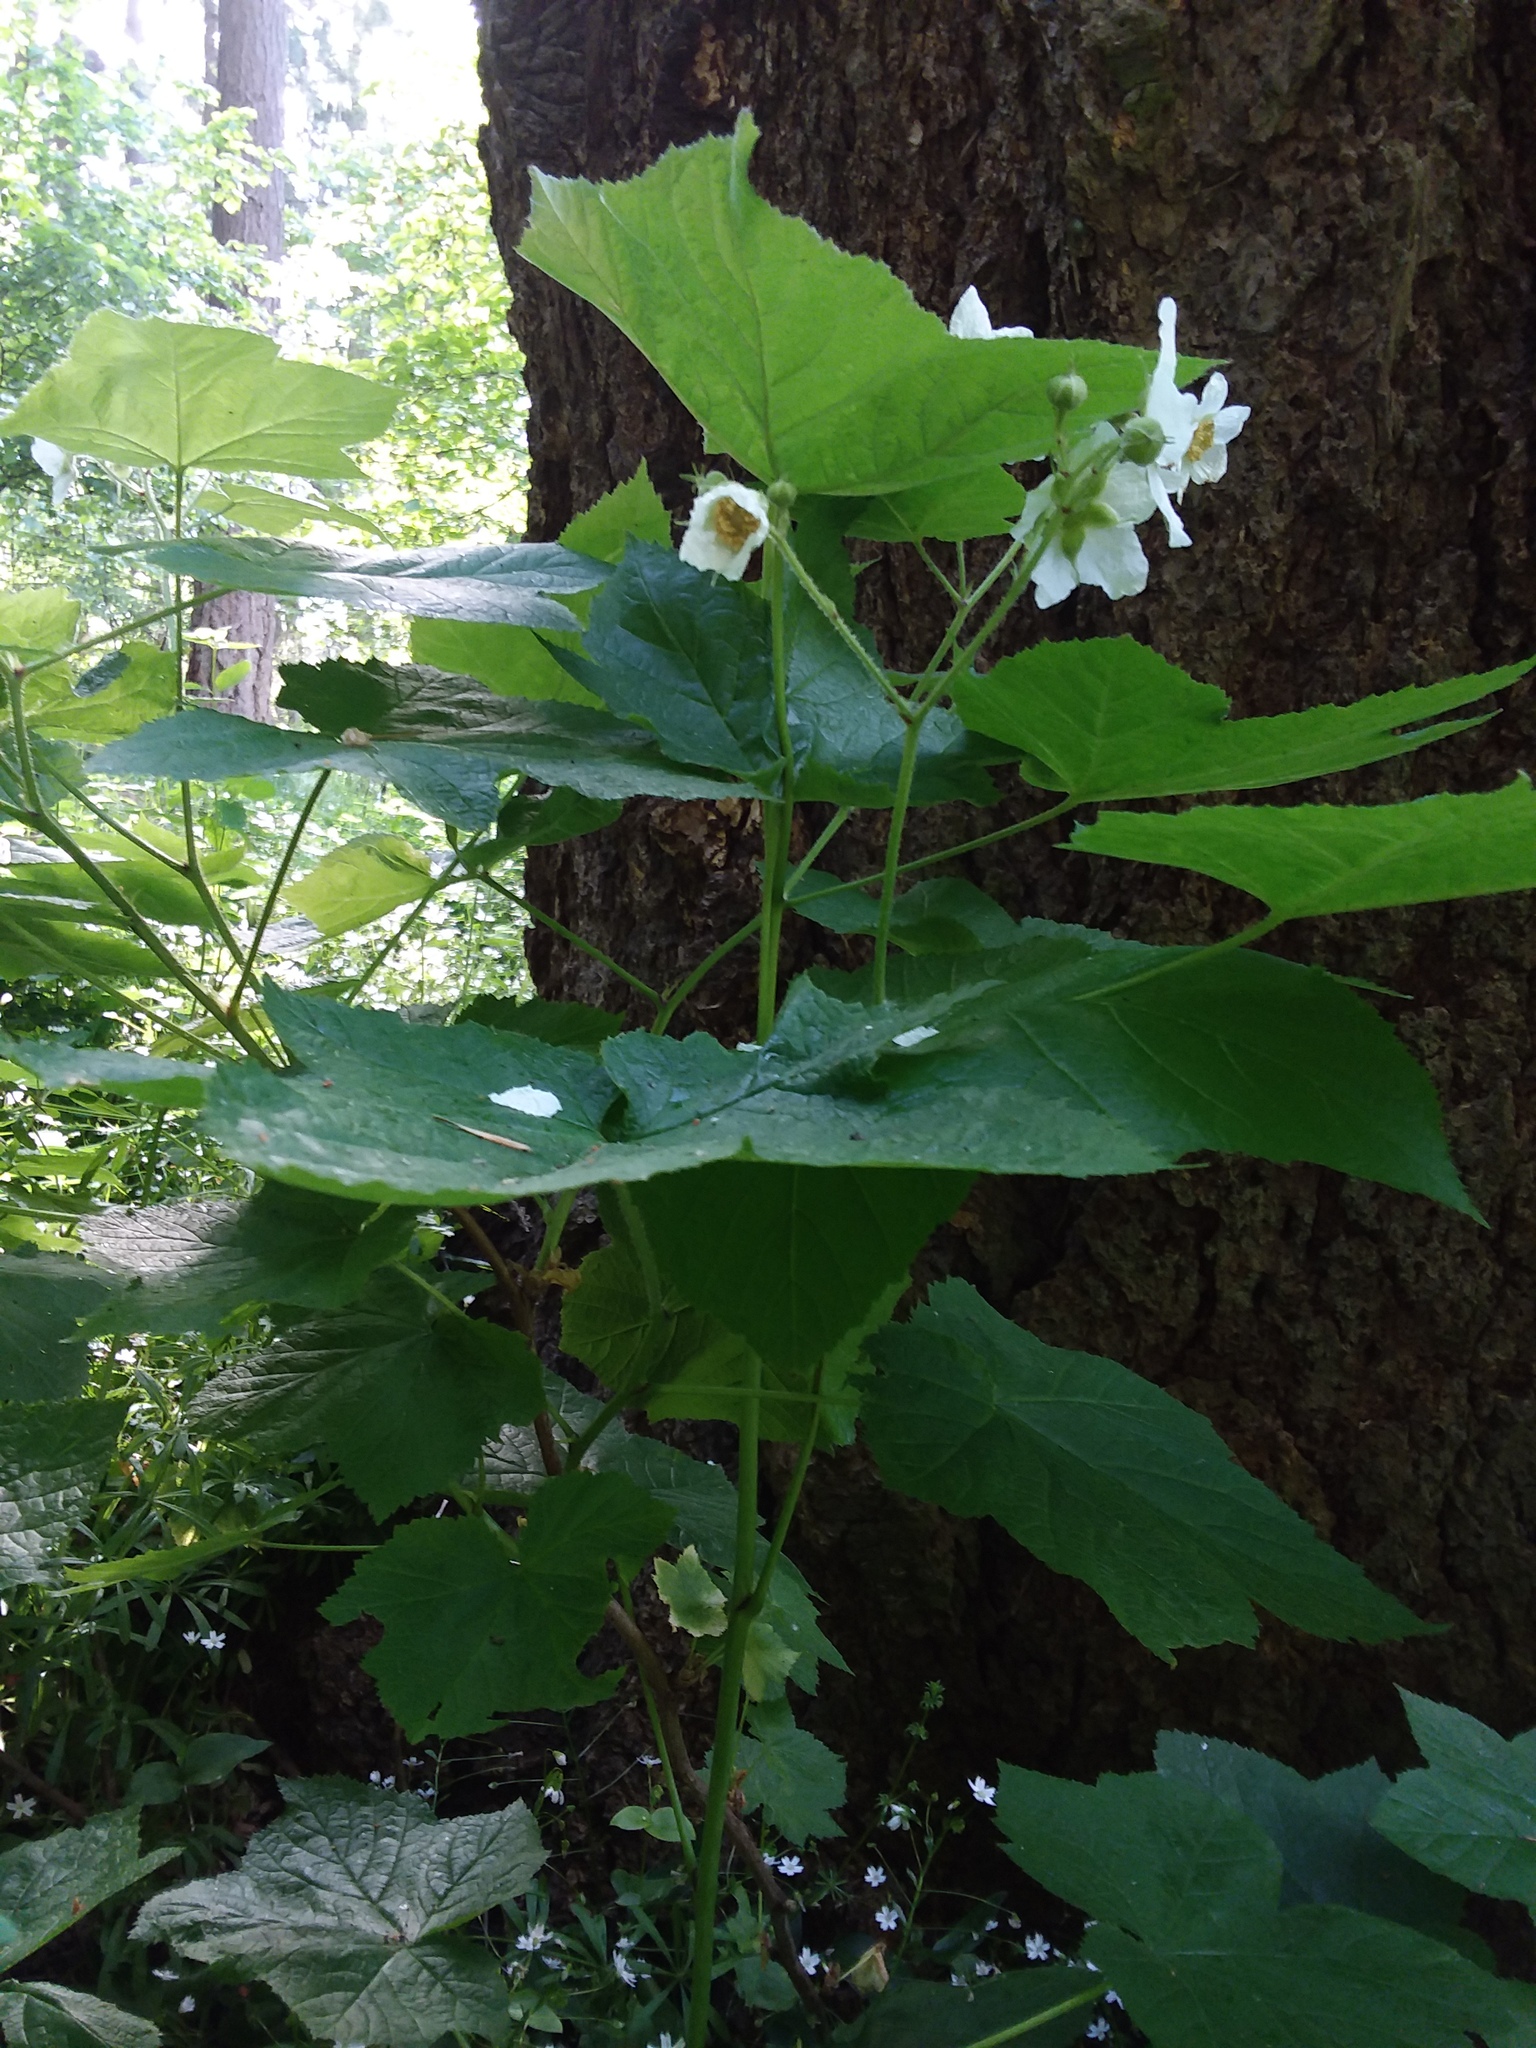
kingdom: Plantae
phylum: Tracheophyta
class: Magnoliopsida
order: Rosales
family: Rosaceae
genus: Rubus
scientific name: Rubus parviflorus
